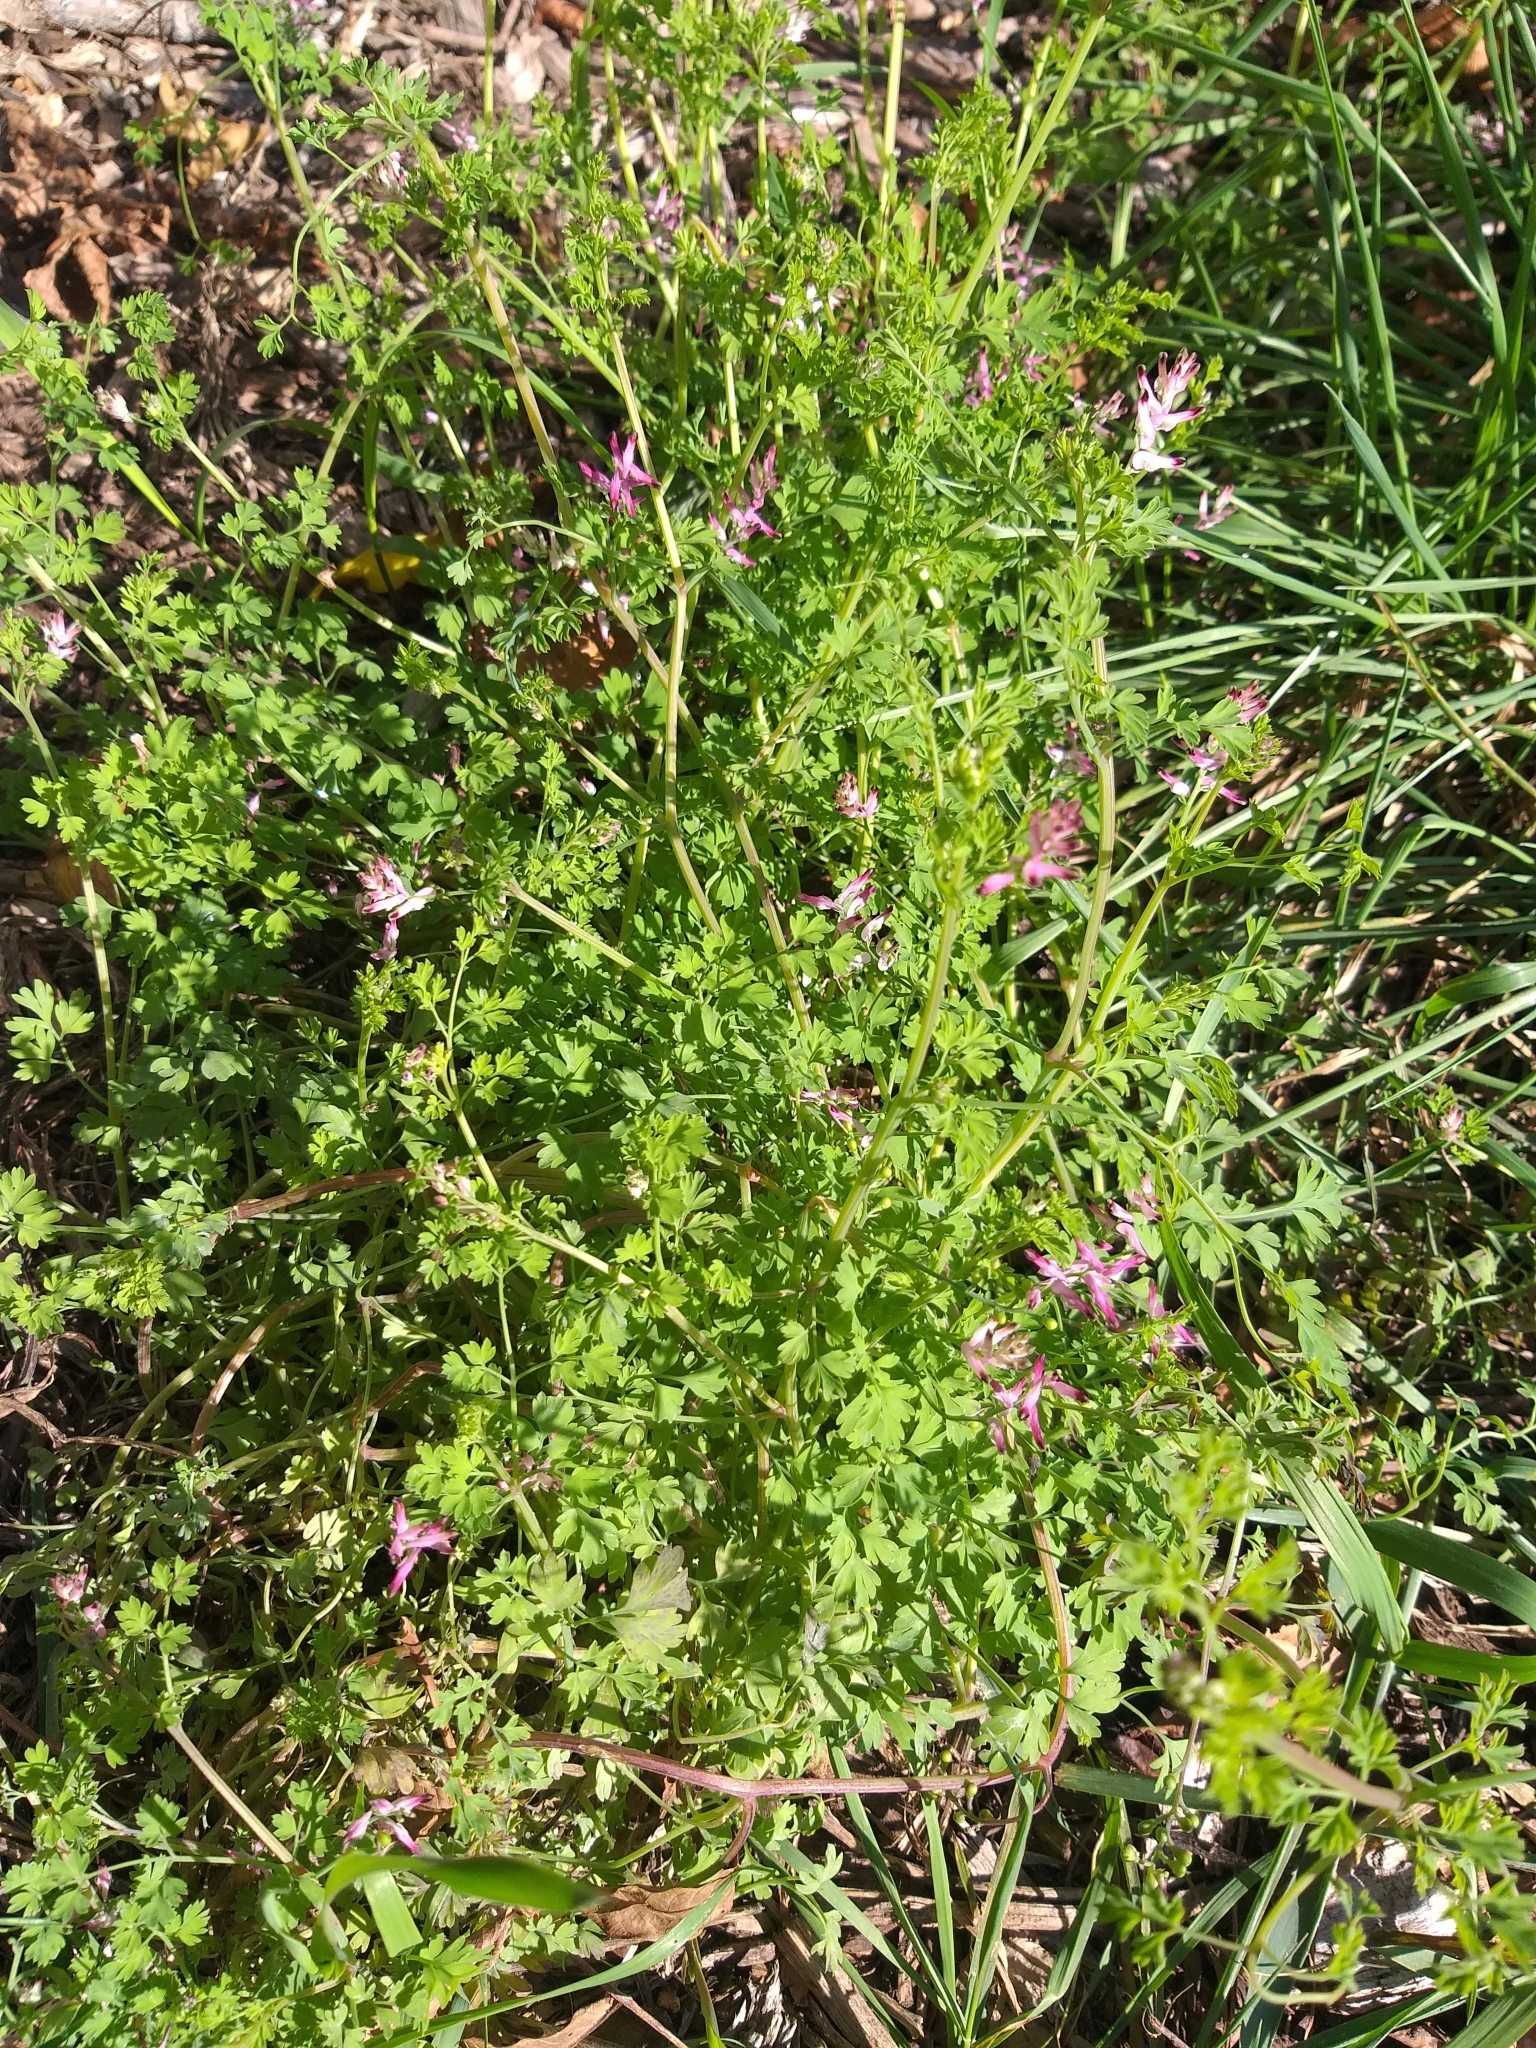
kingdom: Plantae
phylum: Tracheophyta
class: Magnoliopsida
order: Ranunculales
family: Papaveraceae
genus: Fumaria
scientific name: Fumaria muralis
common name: Common ramping-fumitory
